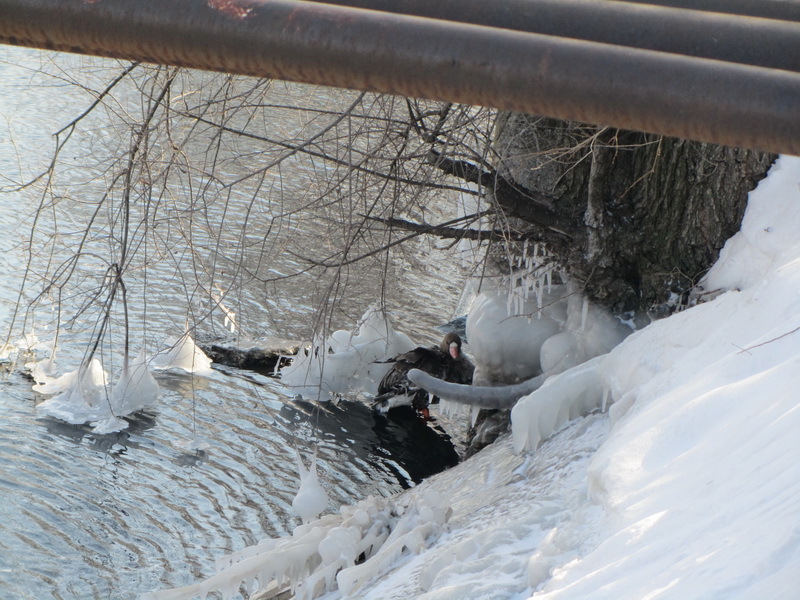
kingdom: Animalia
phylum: Chordata
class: Aves
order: Anseriformes
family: Anatidae
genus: Anser
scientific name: Anser albifrons
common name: Greater white-fronted goose
